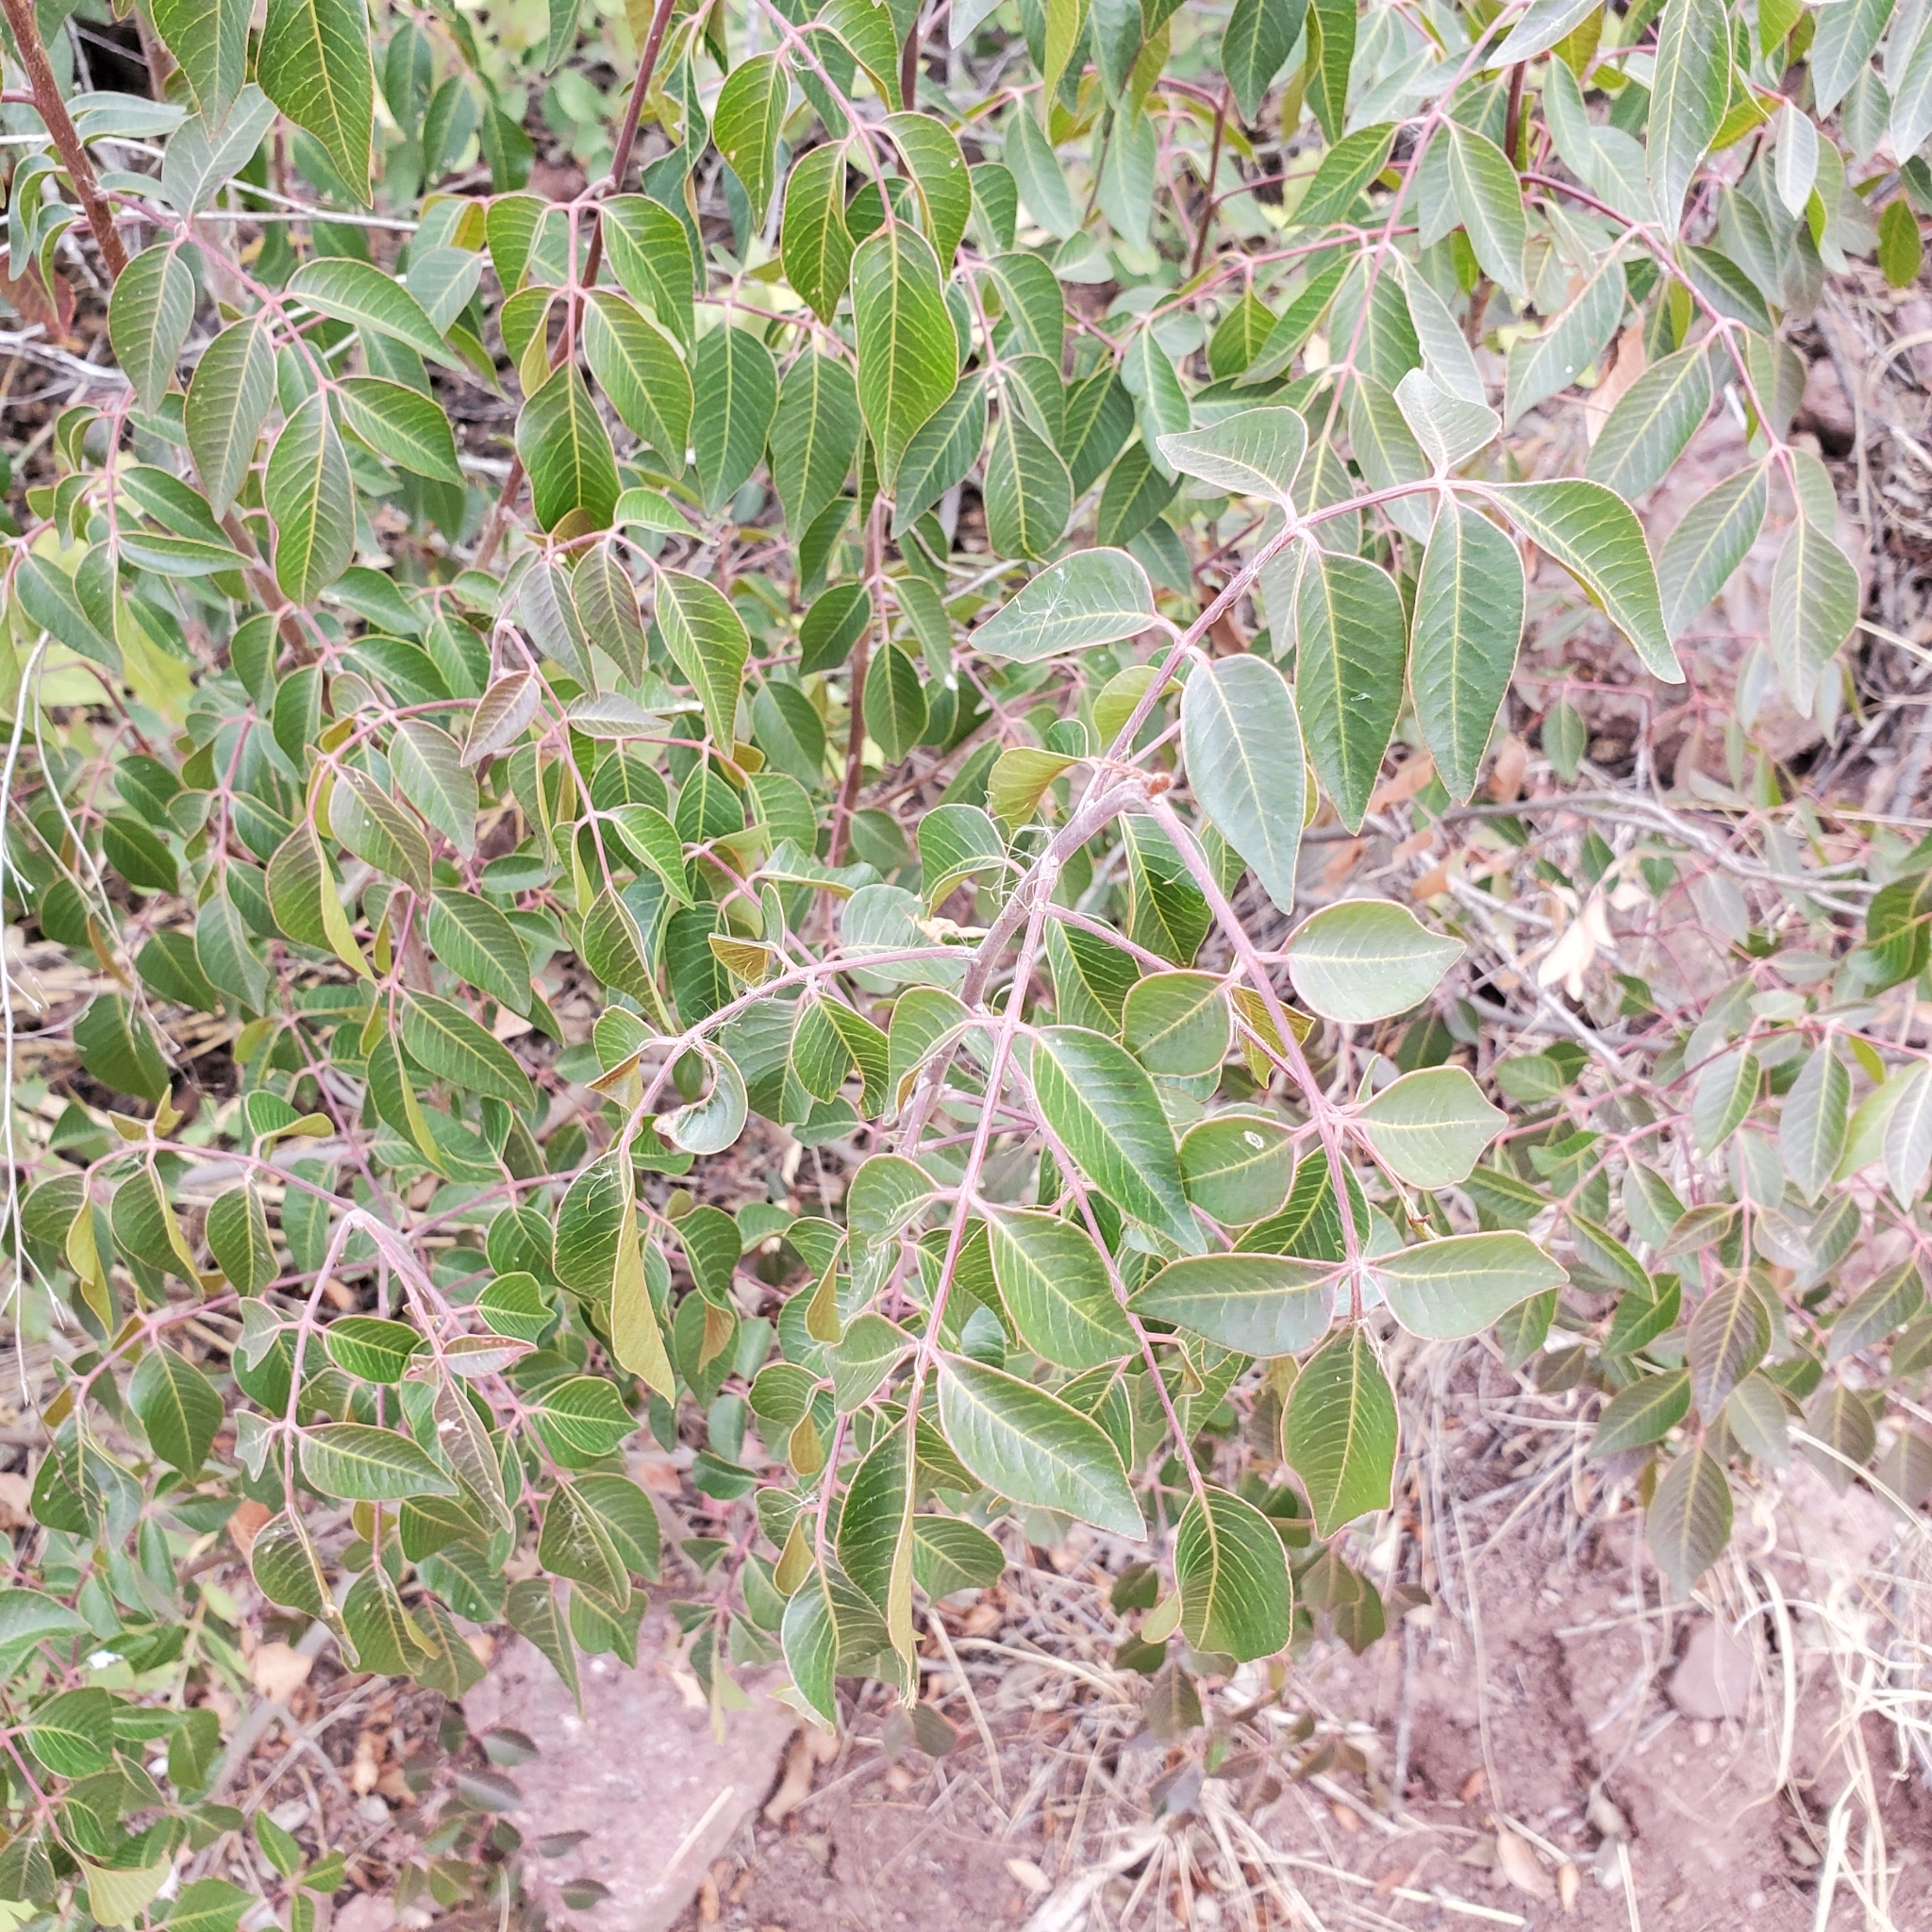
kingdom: Plantae
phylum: Tracheophyta
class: Magnoliopsida
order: Sapindales
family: Anacardiaceae
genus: Rhus
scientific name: Rhus virens
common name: Evergreen sumac
